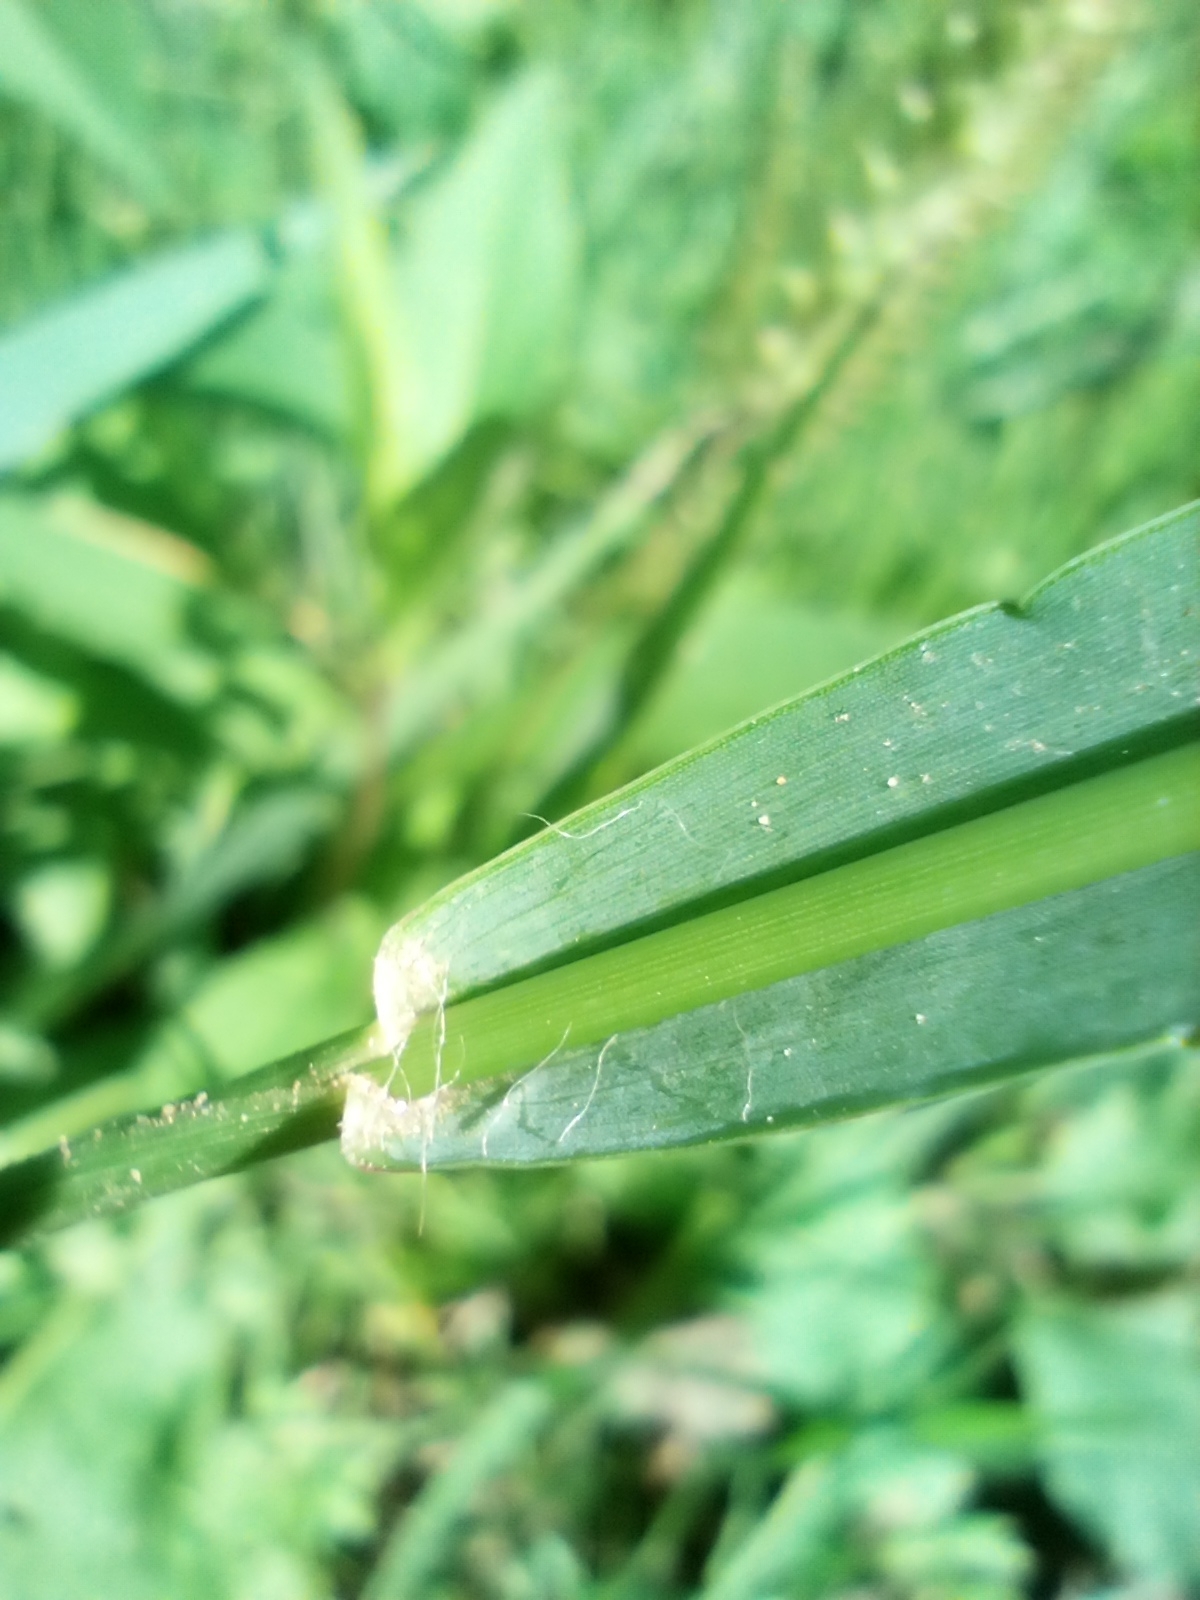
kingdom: Plantae
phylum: Tracheophyta
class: Liliopsida
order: Poales
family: Poaceae
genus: Setaria
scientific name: Setaria pumila
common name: Yellow bristle-grass
